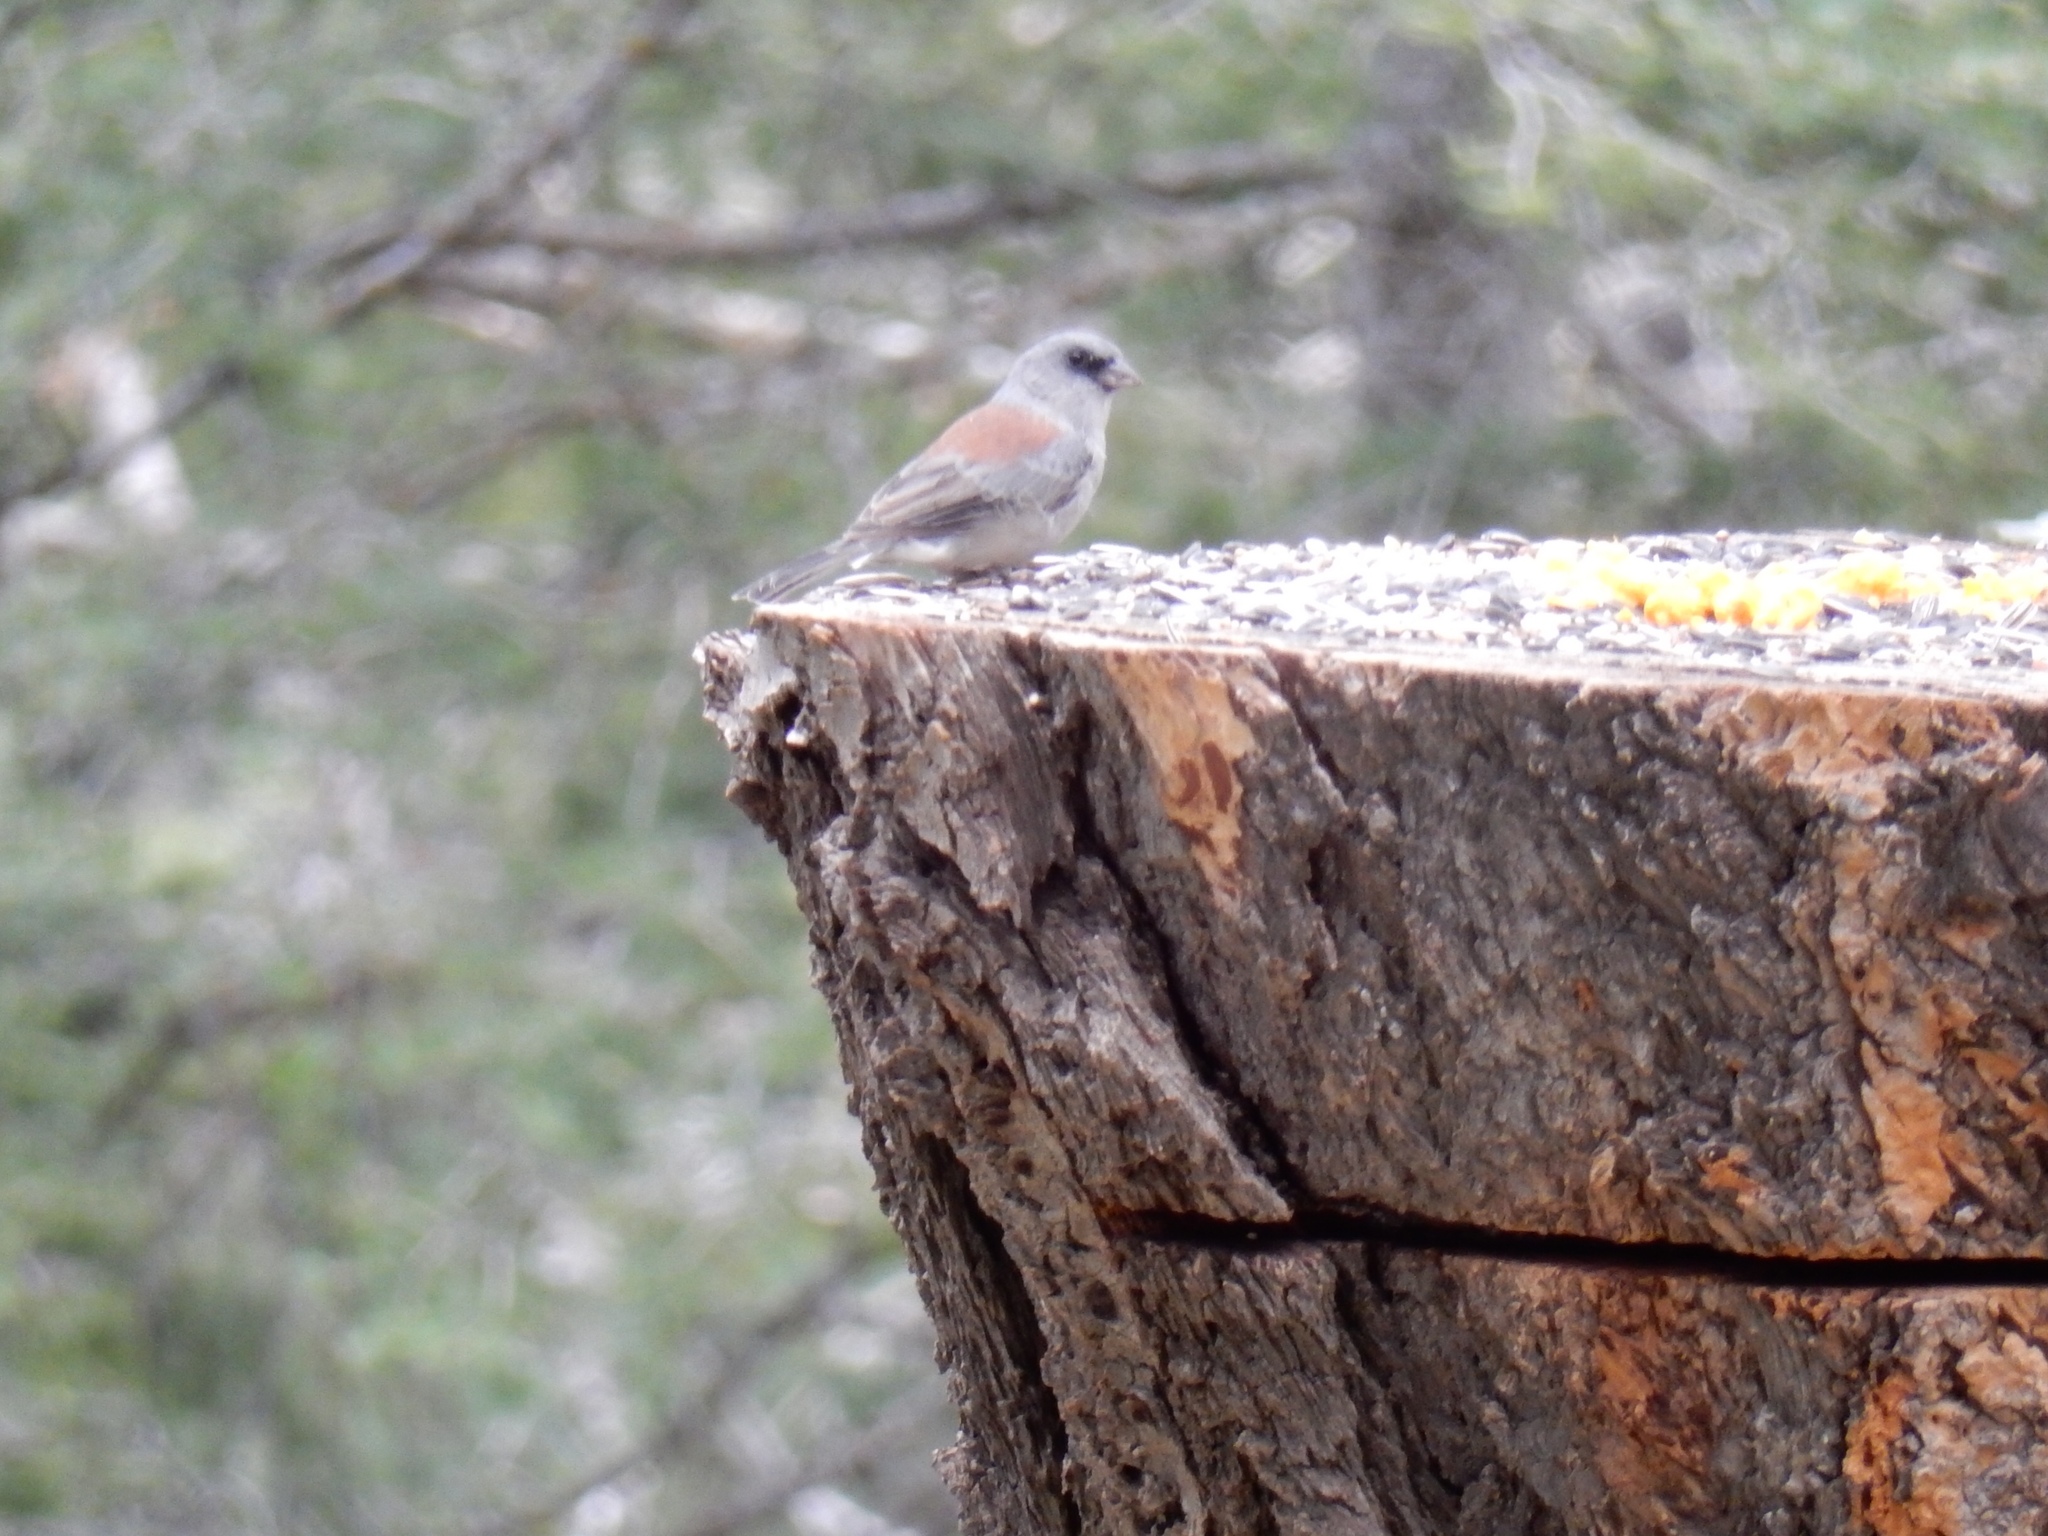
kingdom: Animalia
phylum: Chordata
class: Aves
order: Passeriformes
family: Passerellidae
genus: Junco
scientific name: Junco hyemalis
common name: Dark-eyed junco
